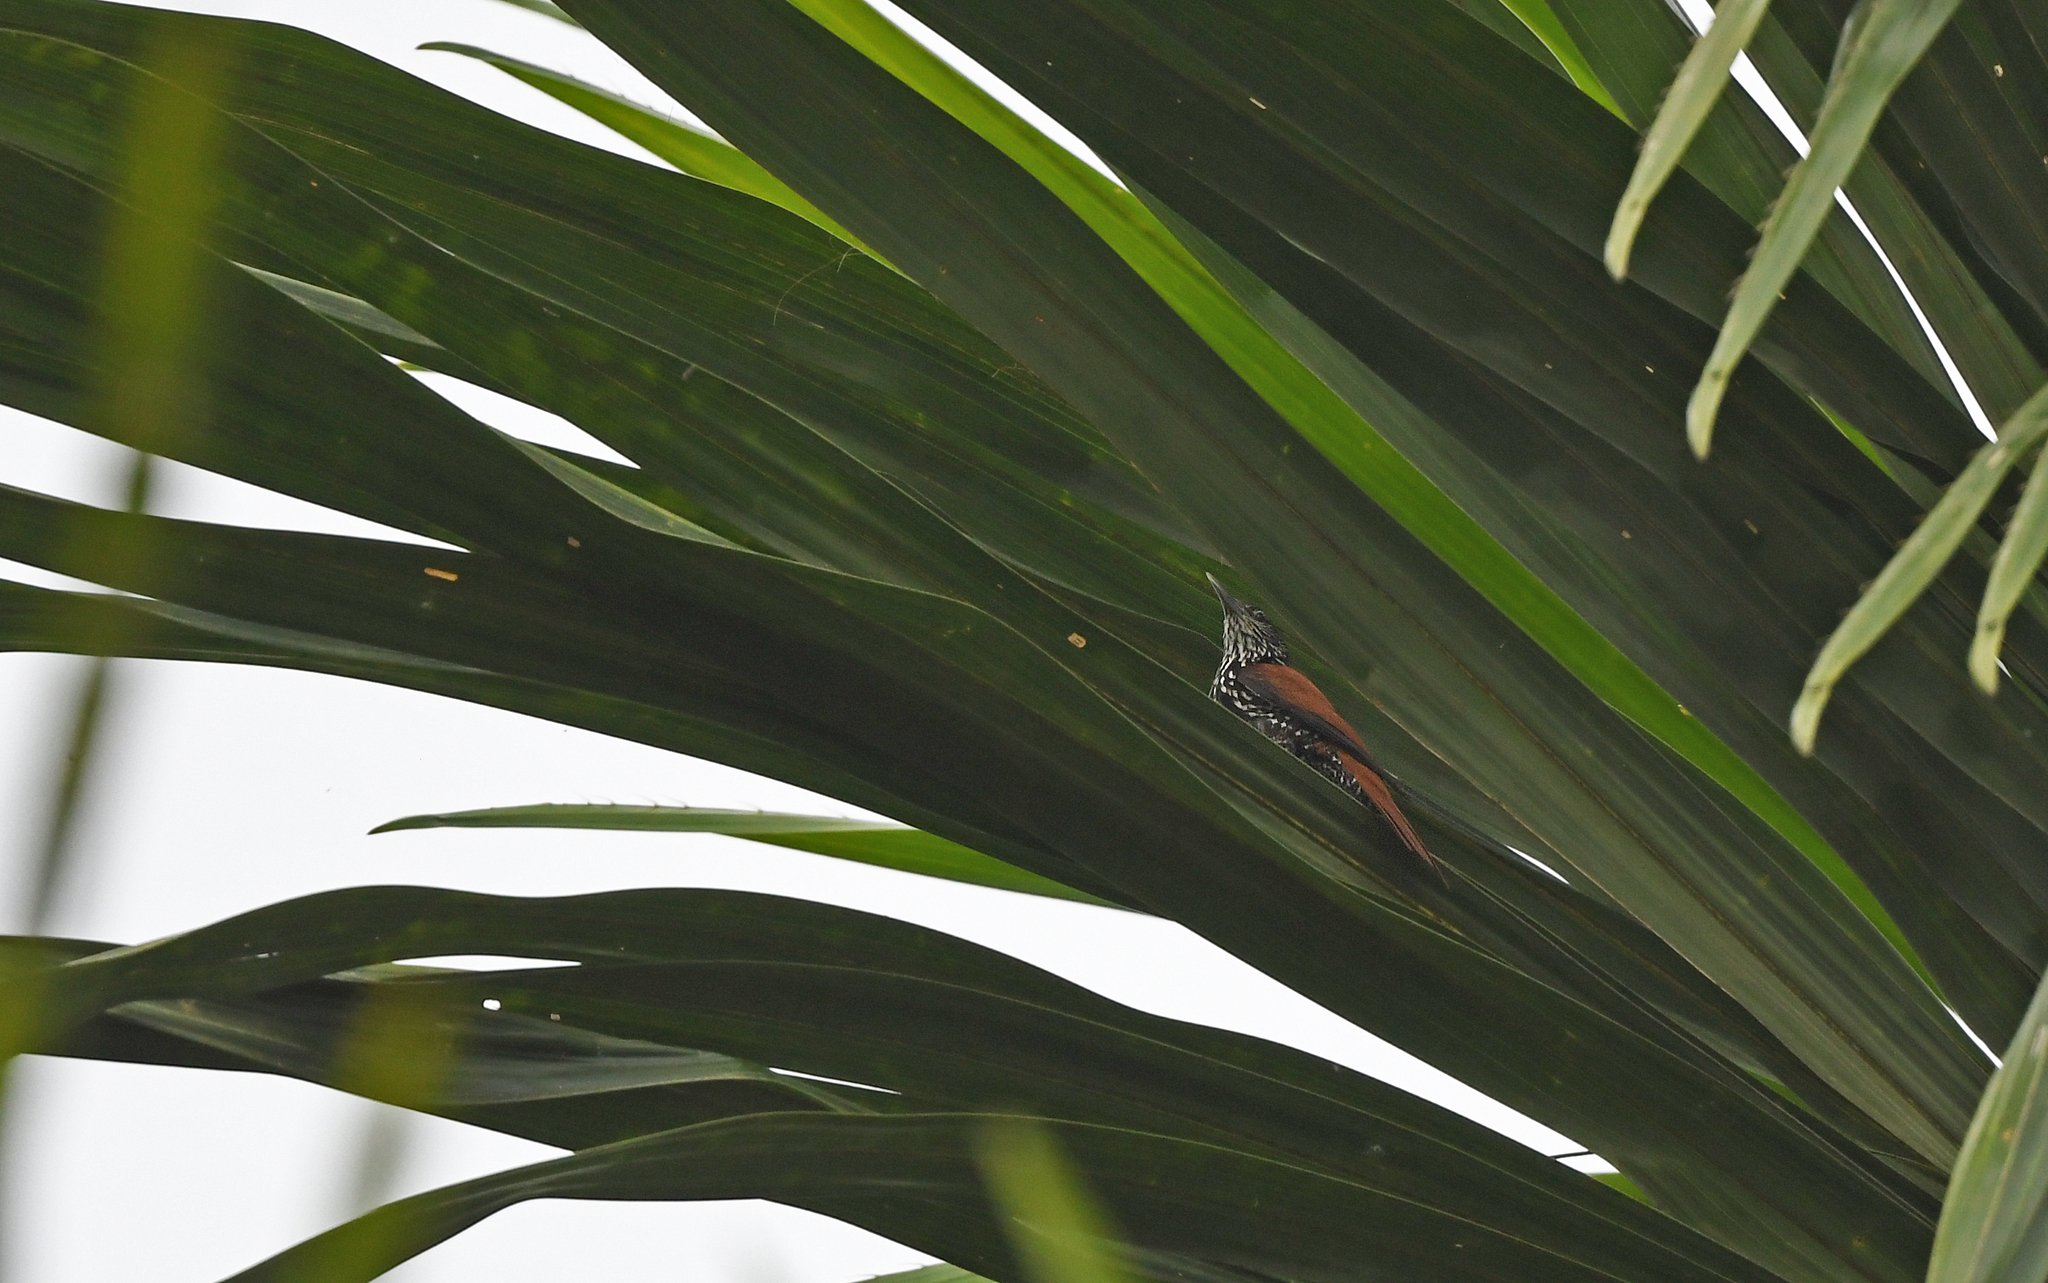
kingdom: Animalia
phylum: Chordata
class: Aves
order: Passeriformes
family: Furnariidae
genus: Berlepschia
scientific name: Berlepschia rikeri
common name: Point-tailed palmcreeper
